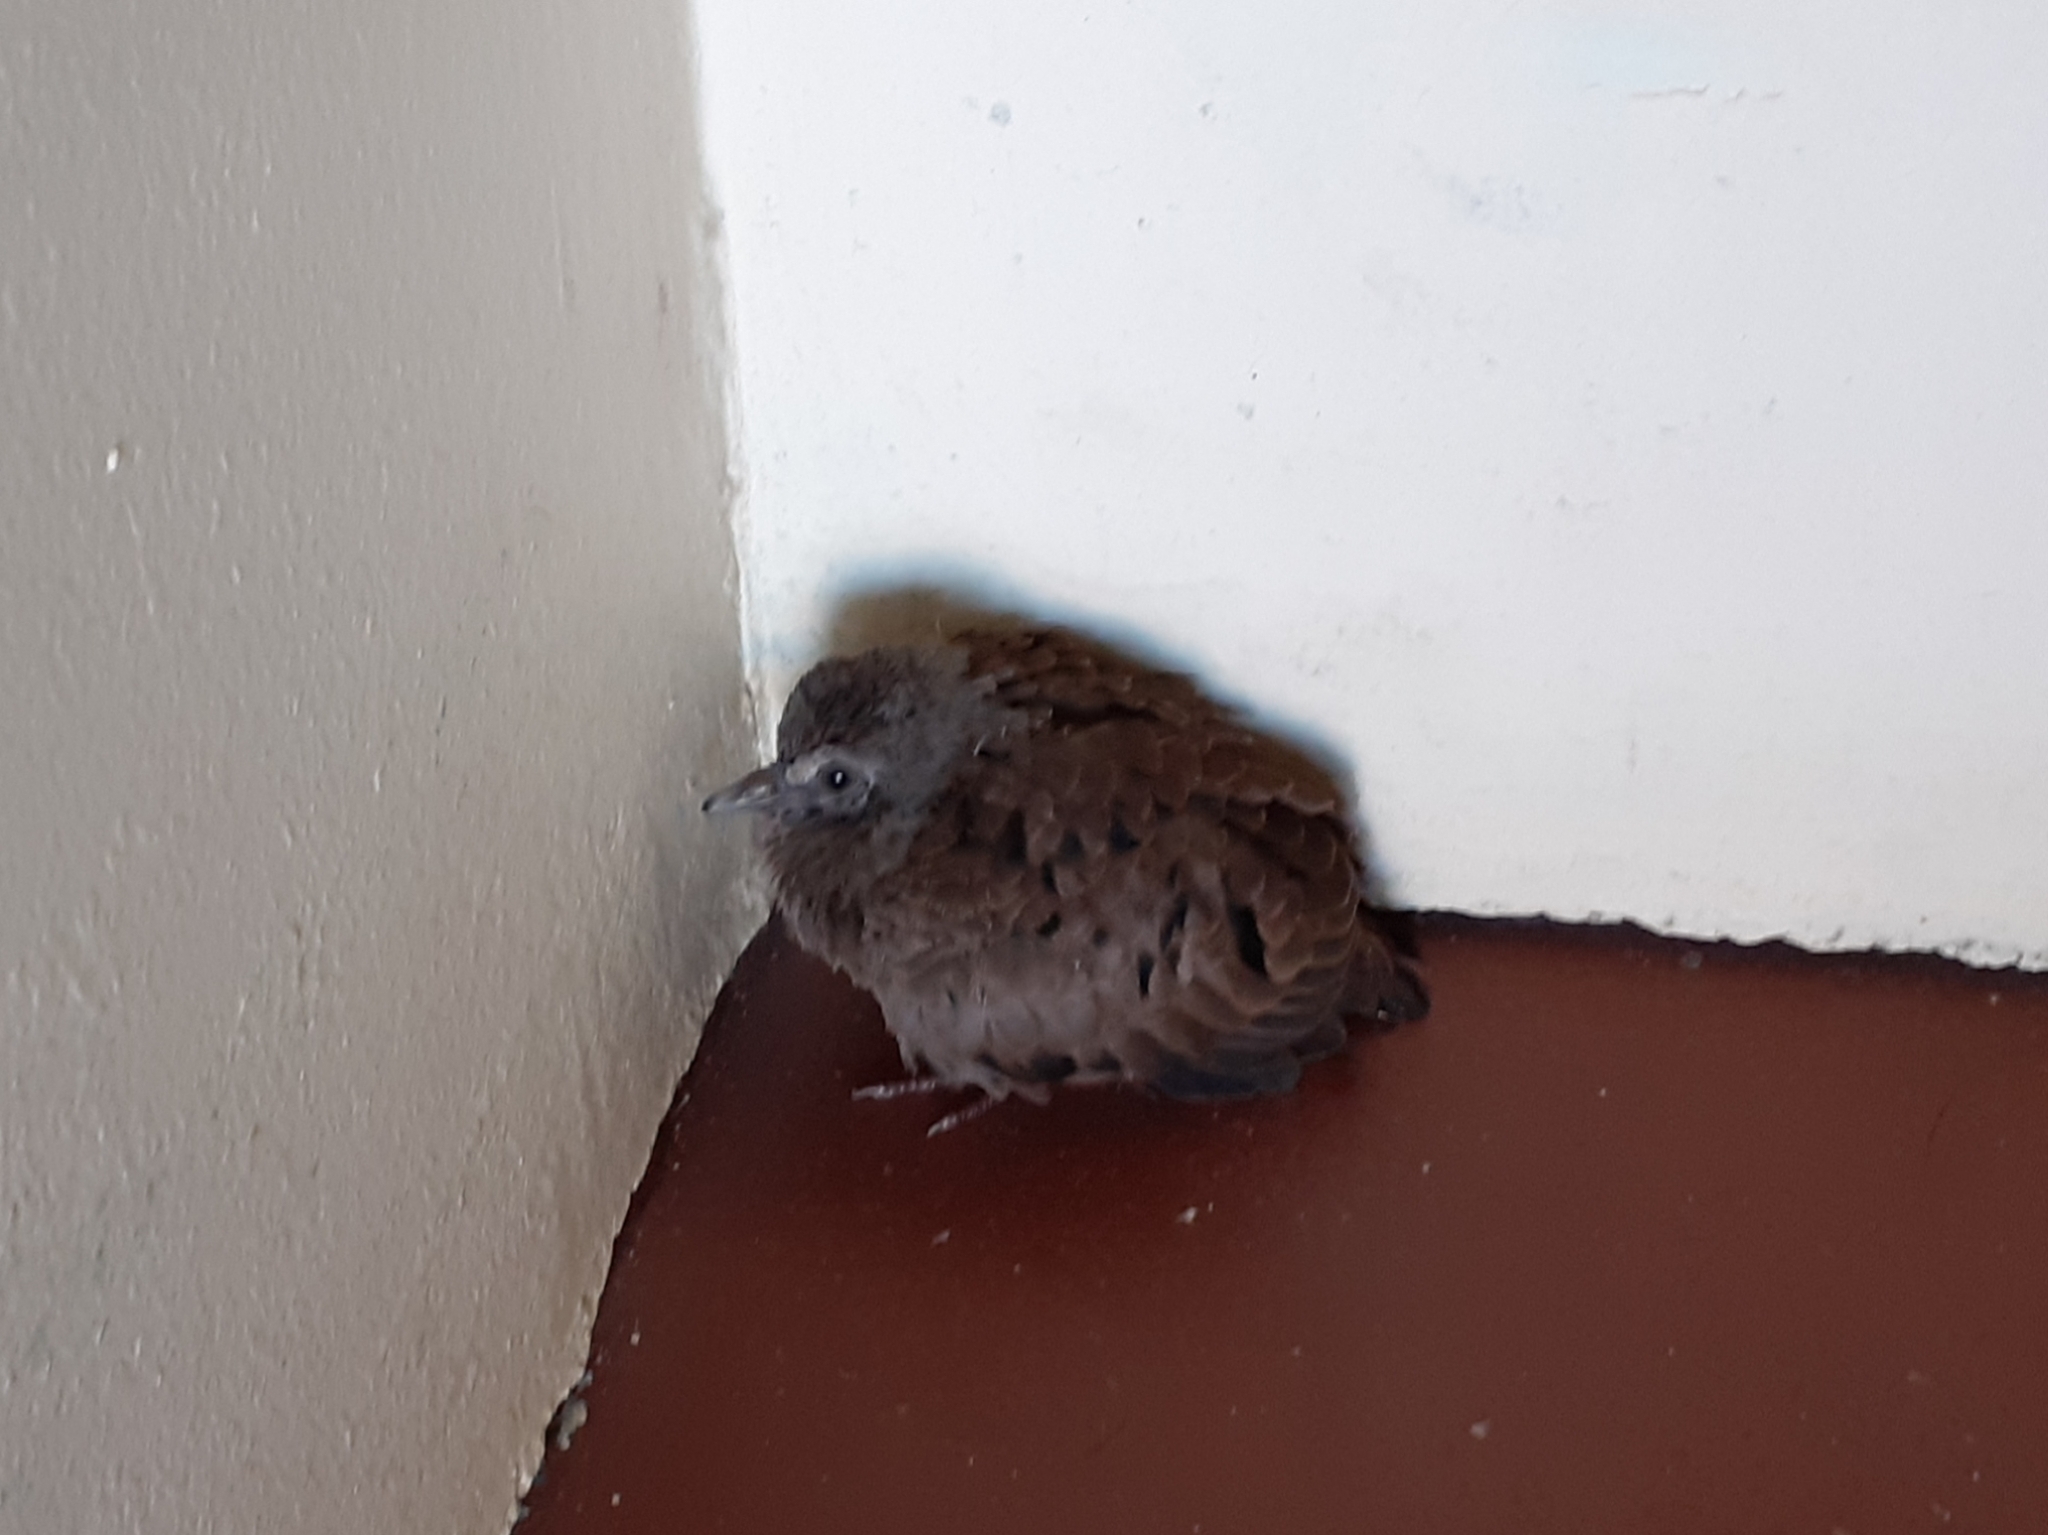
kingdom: Animalia
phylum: Chordata
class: Aves
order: Columbiformes
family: Columbidae
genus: Columbina
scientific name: Columbina talpacoti
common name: Ruddy ground dove
